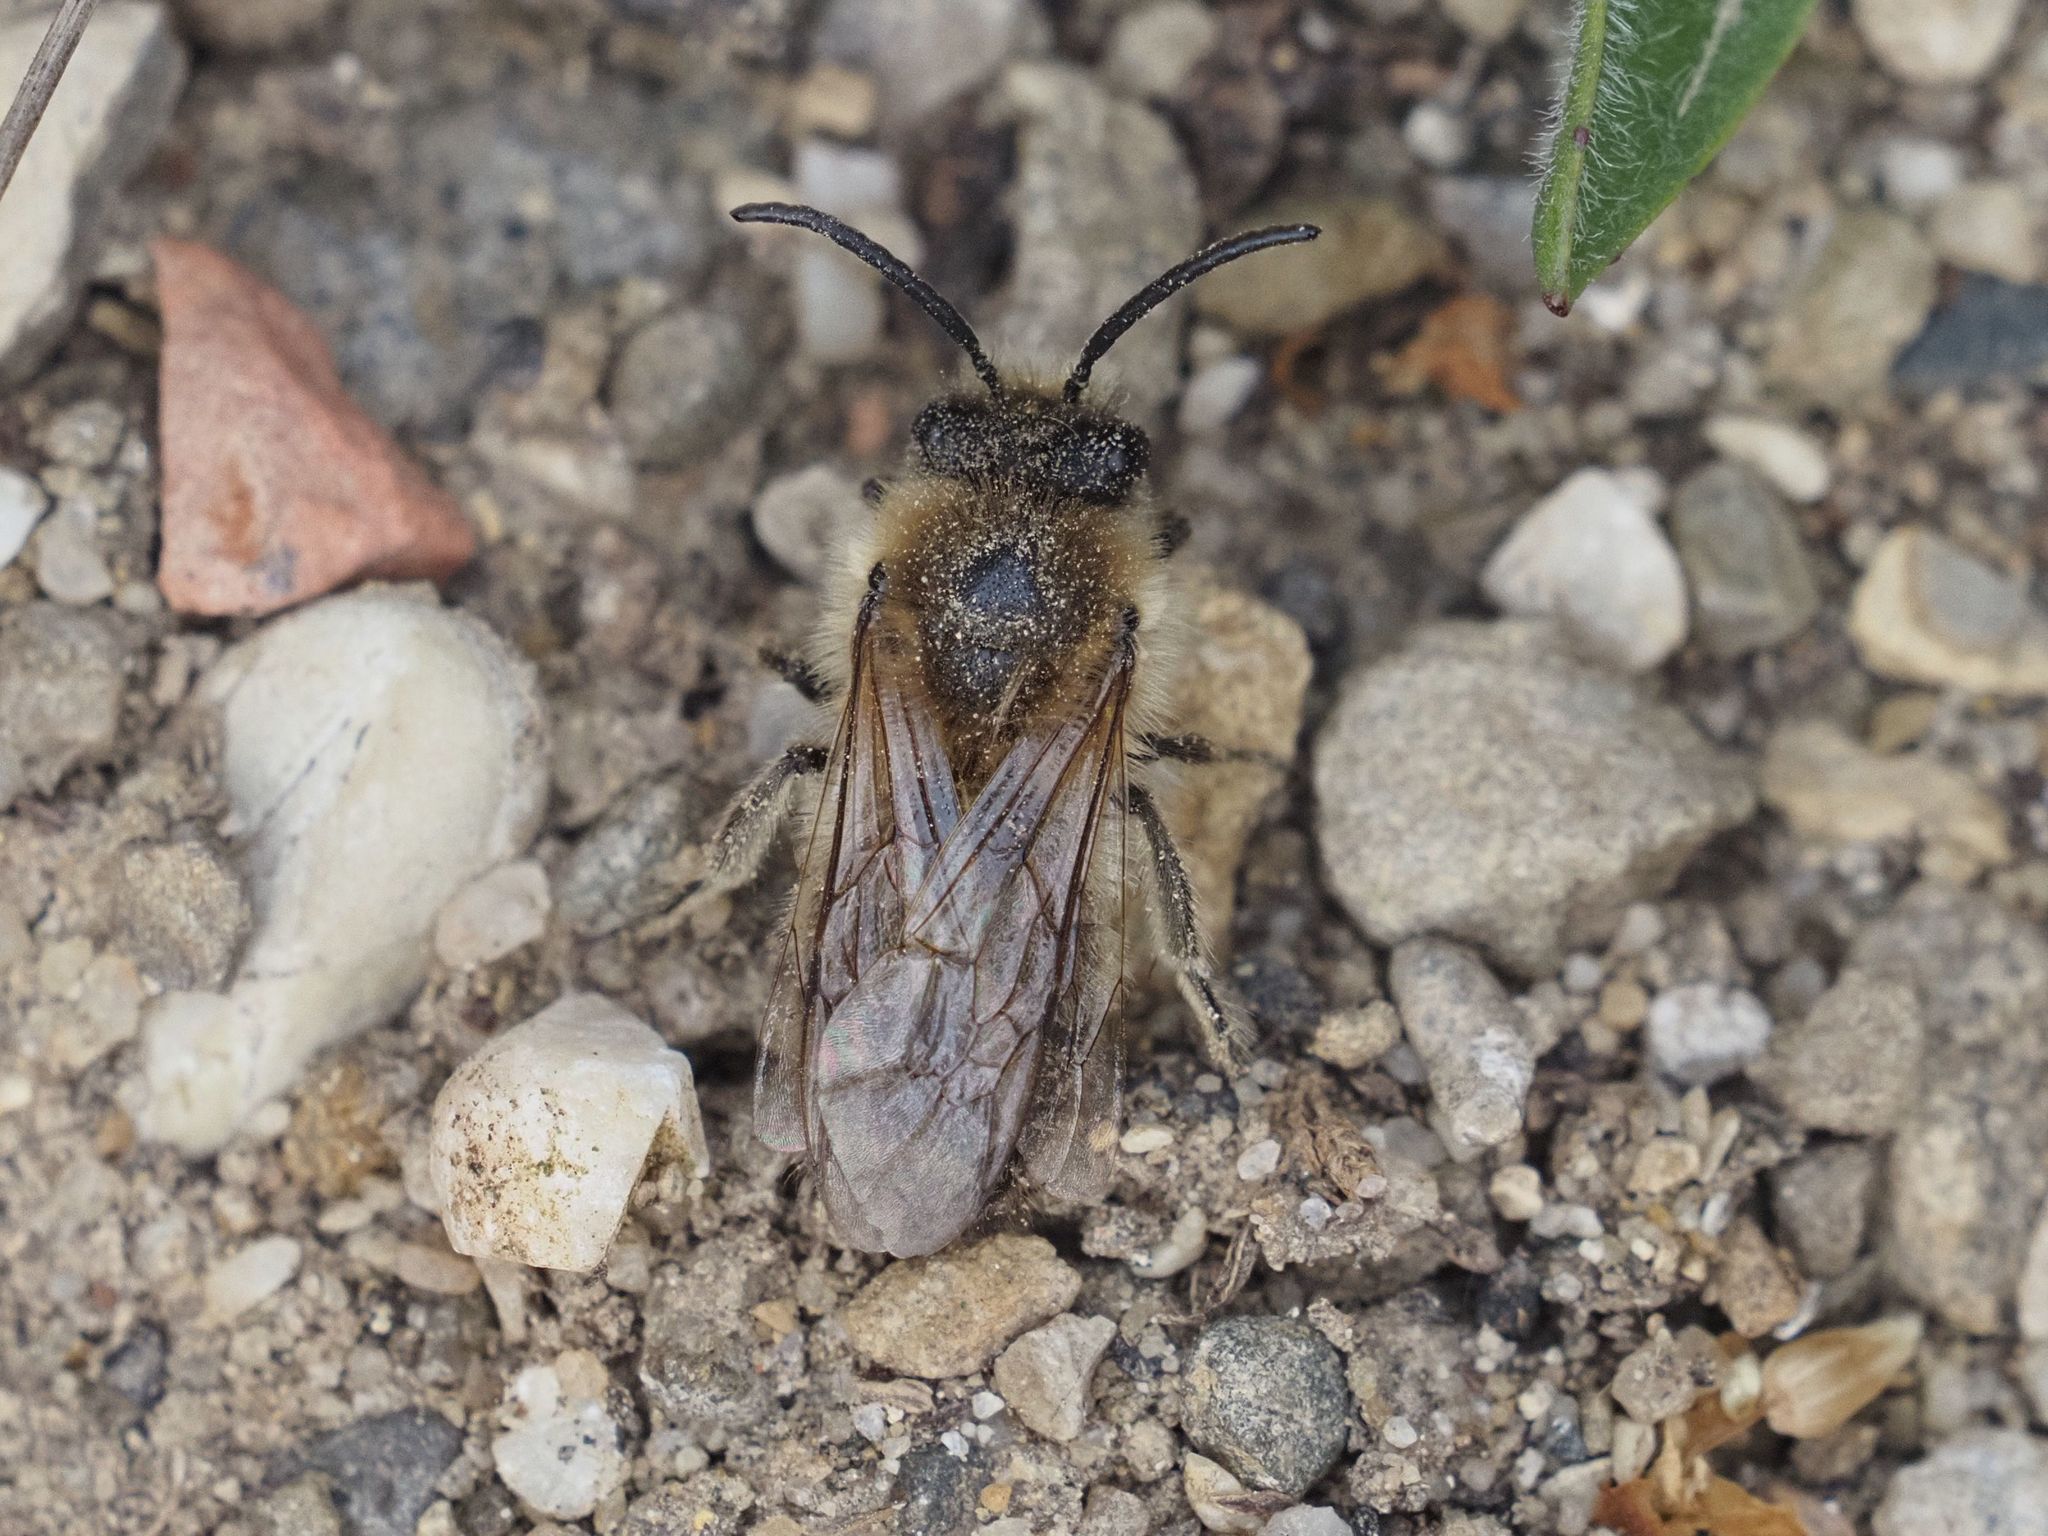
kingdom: Animalia
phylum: Arthropoda
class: Insecta
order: Hymenoptera
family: Colletidae
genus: Colletes
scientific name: Colletes cunicularius
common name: Early colletes
